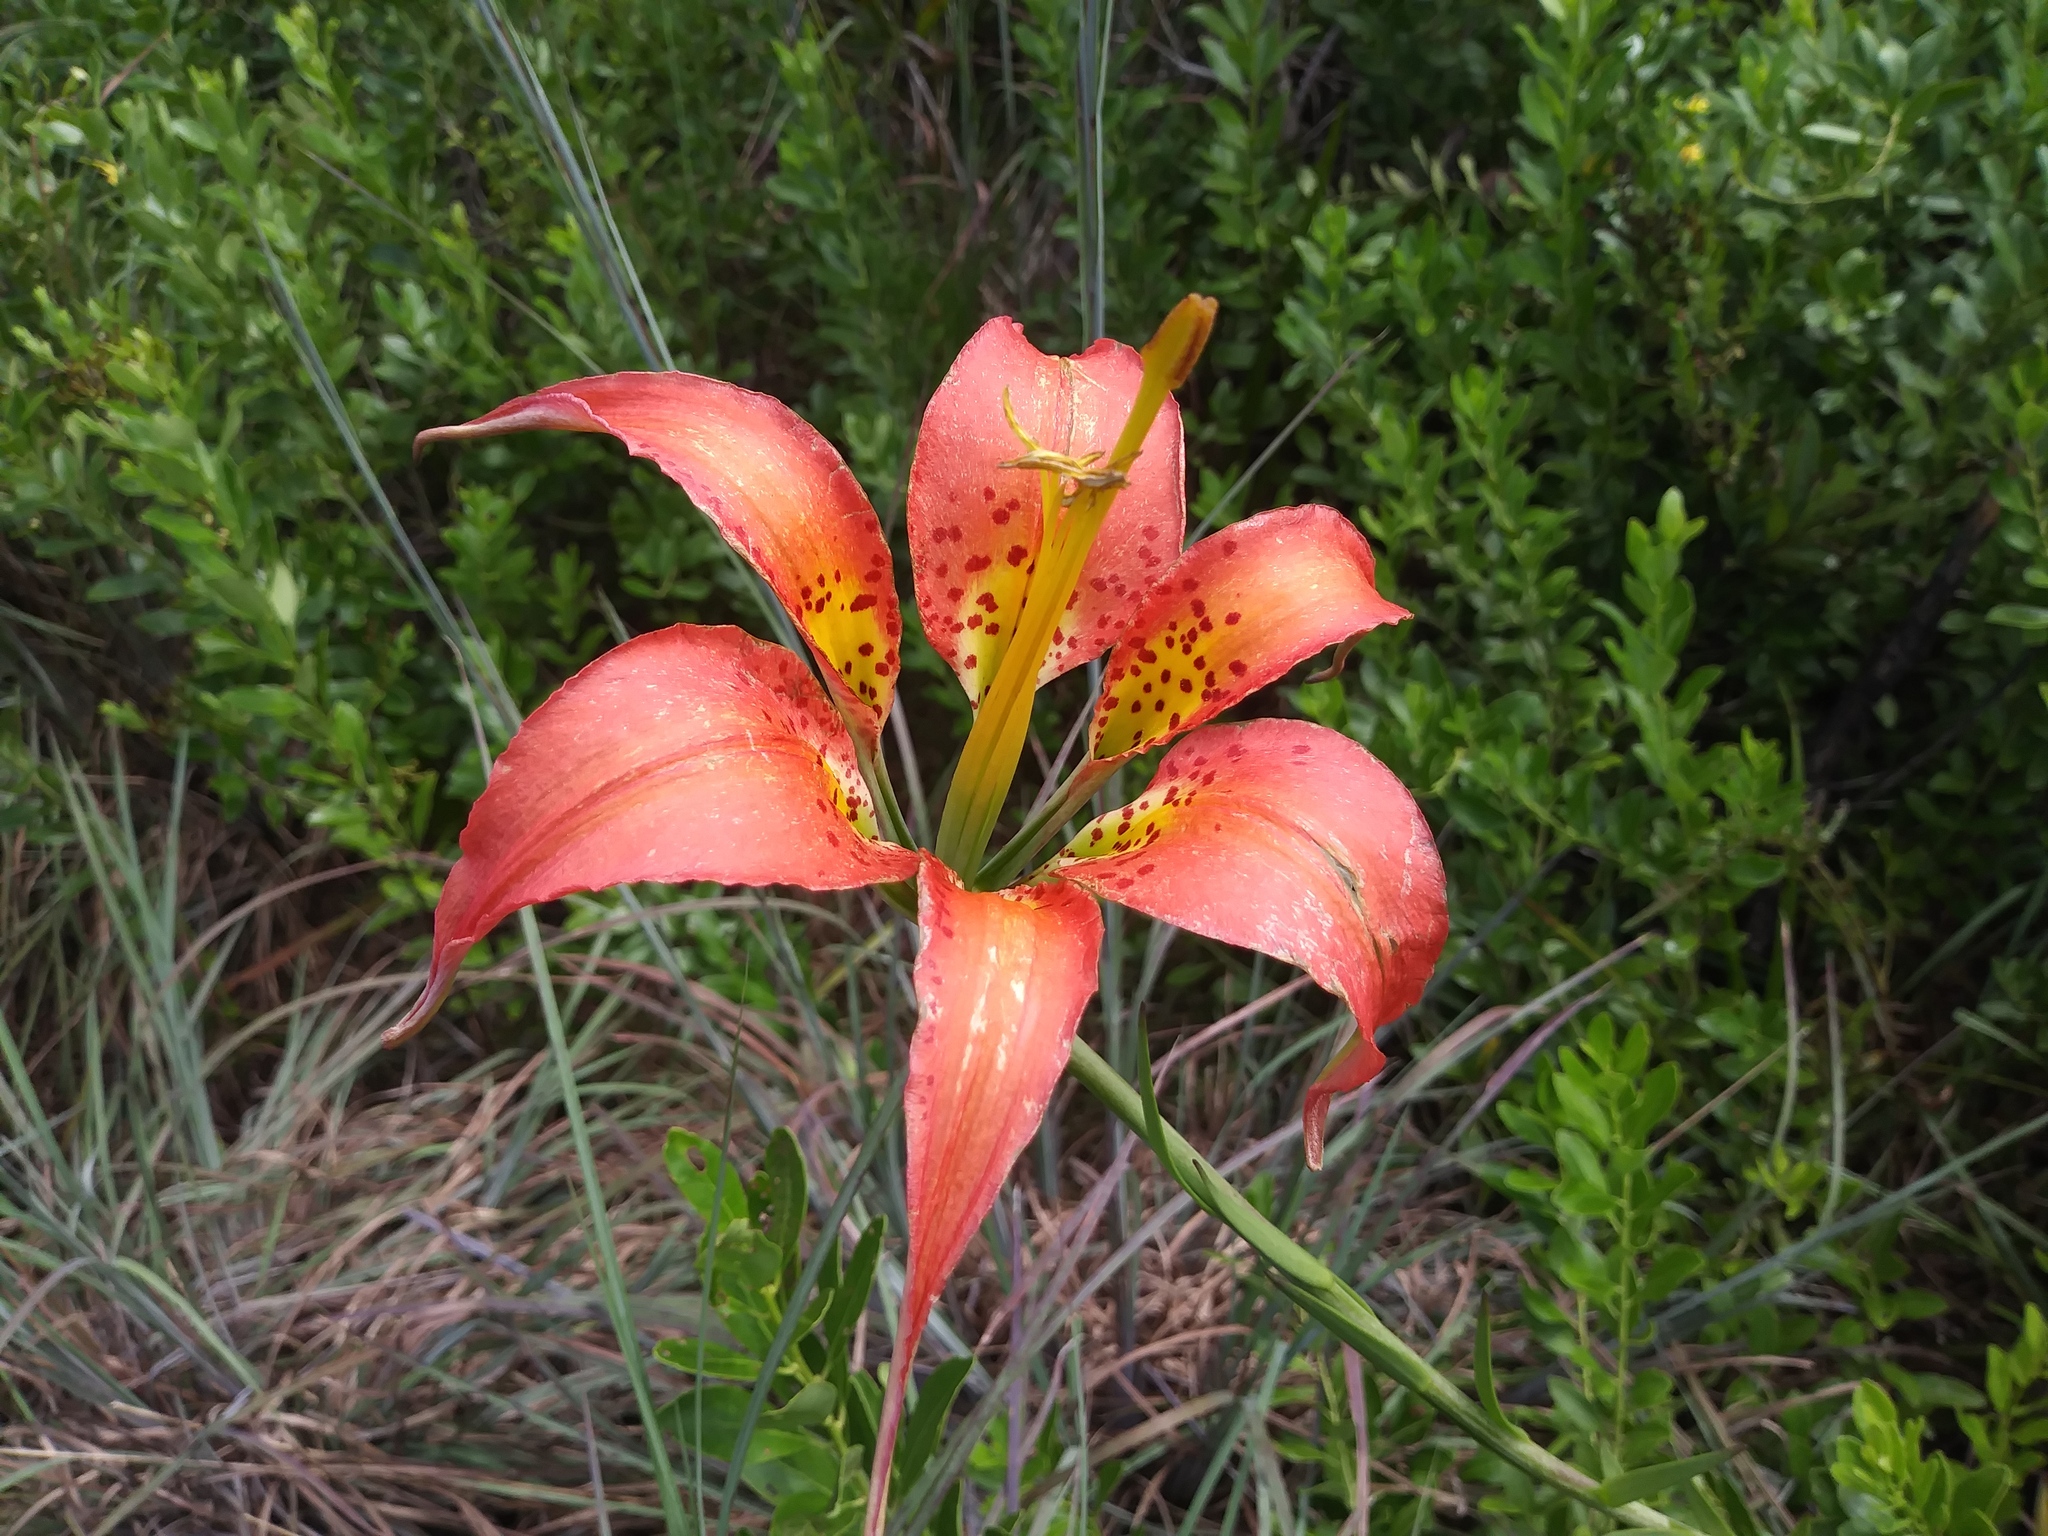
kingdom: Plantae
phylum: Tracheophyta
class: Liliopsida
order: Liliales
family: Liliaceae
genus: Lilium
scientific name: Lilium catesbaei
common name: Catesby's lily
